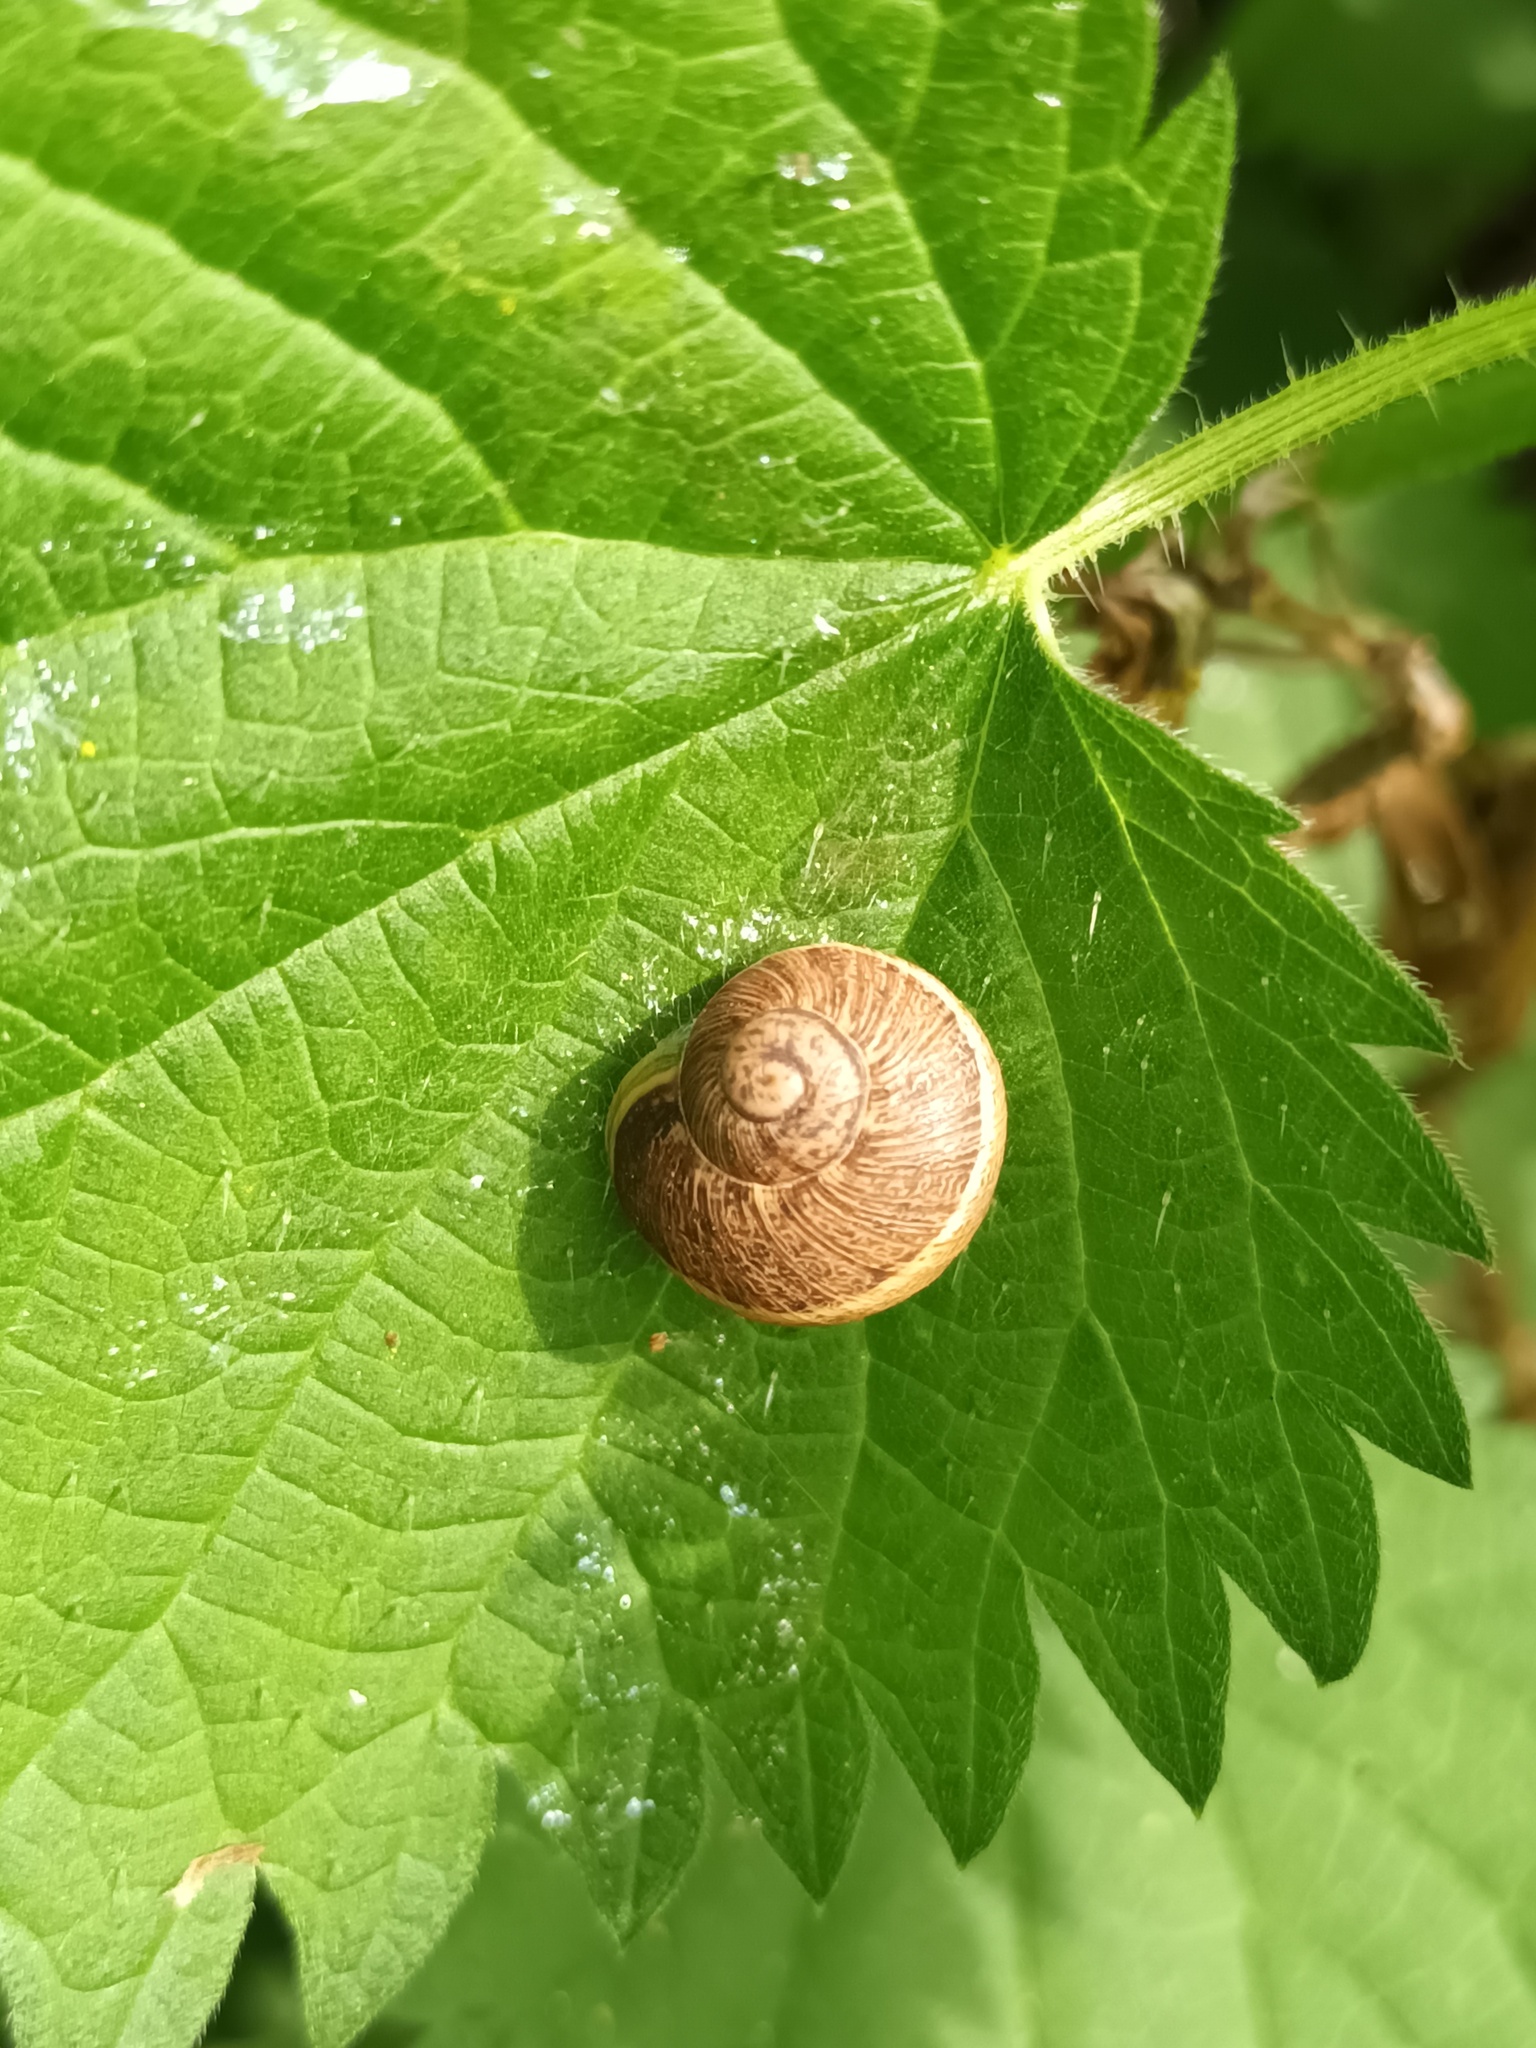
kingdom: Animalia
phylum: Mollusca
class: Gastropoda
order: Stylommatophora
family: Helicidae
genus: Cornu
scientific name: Cornu aspersum
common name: Brown garden snail
